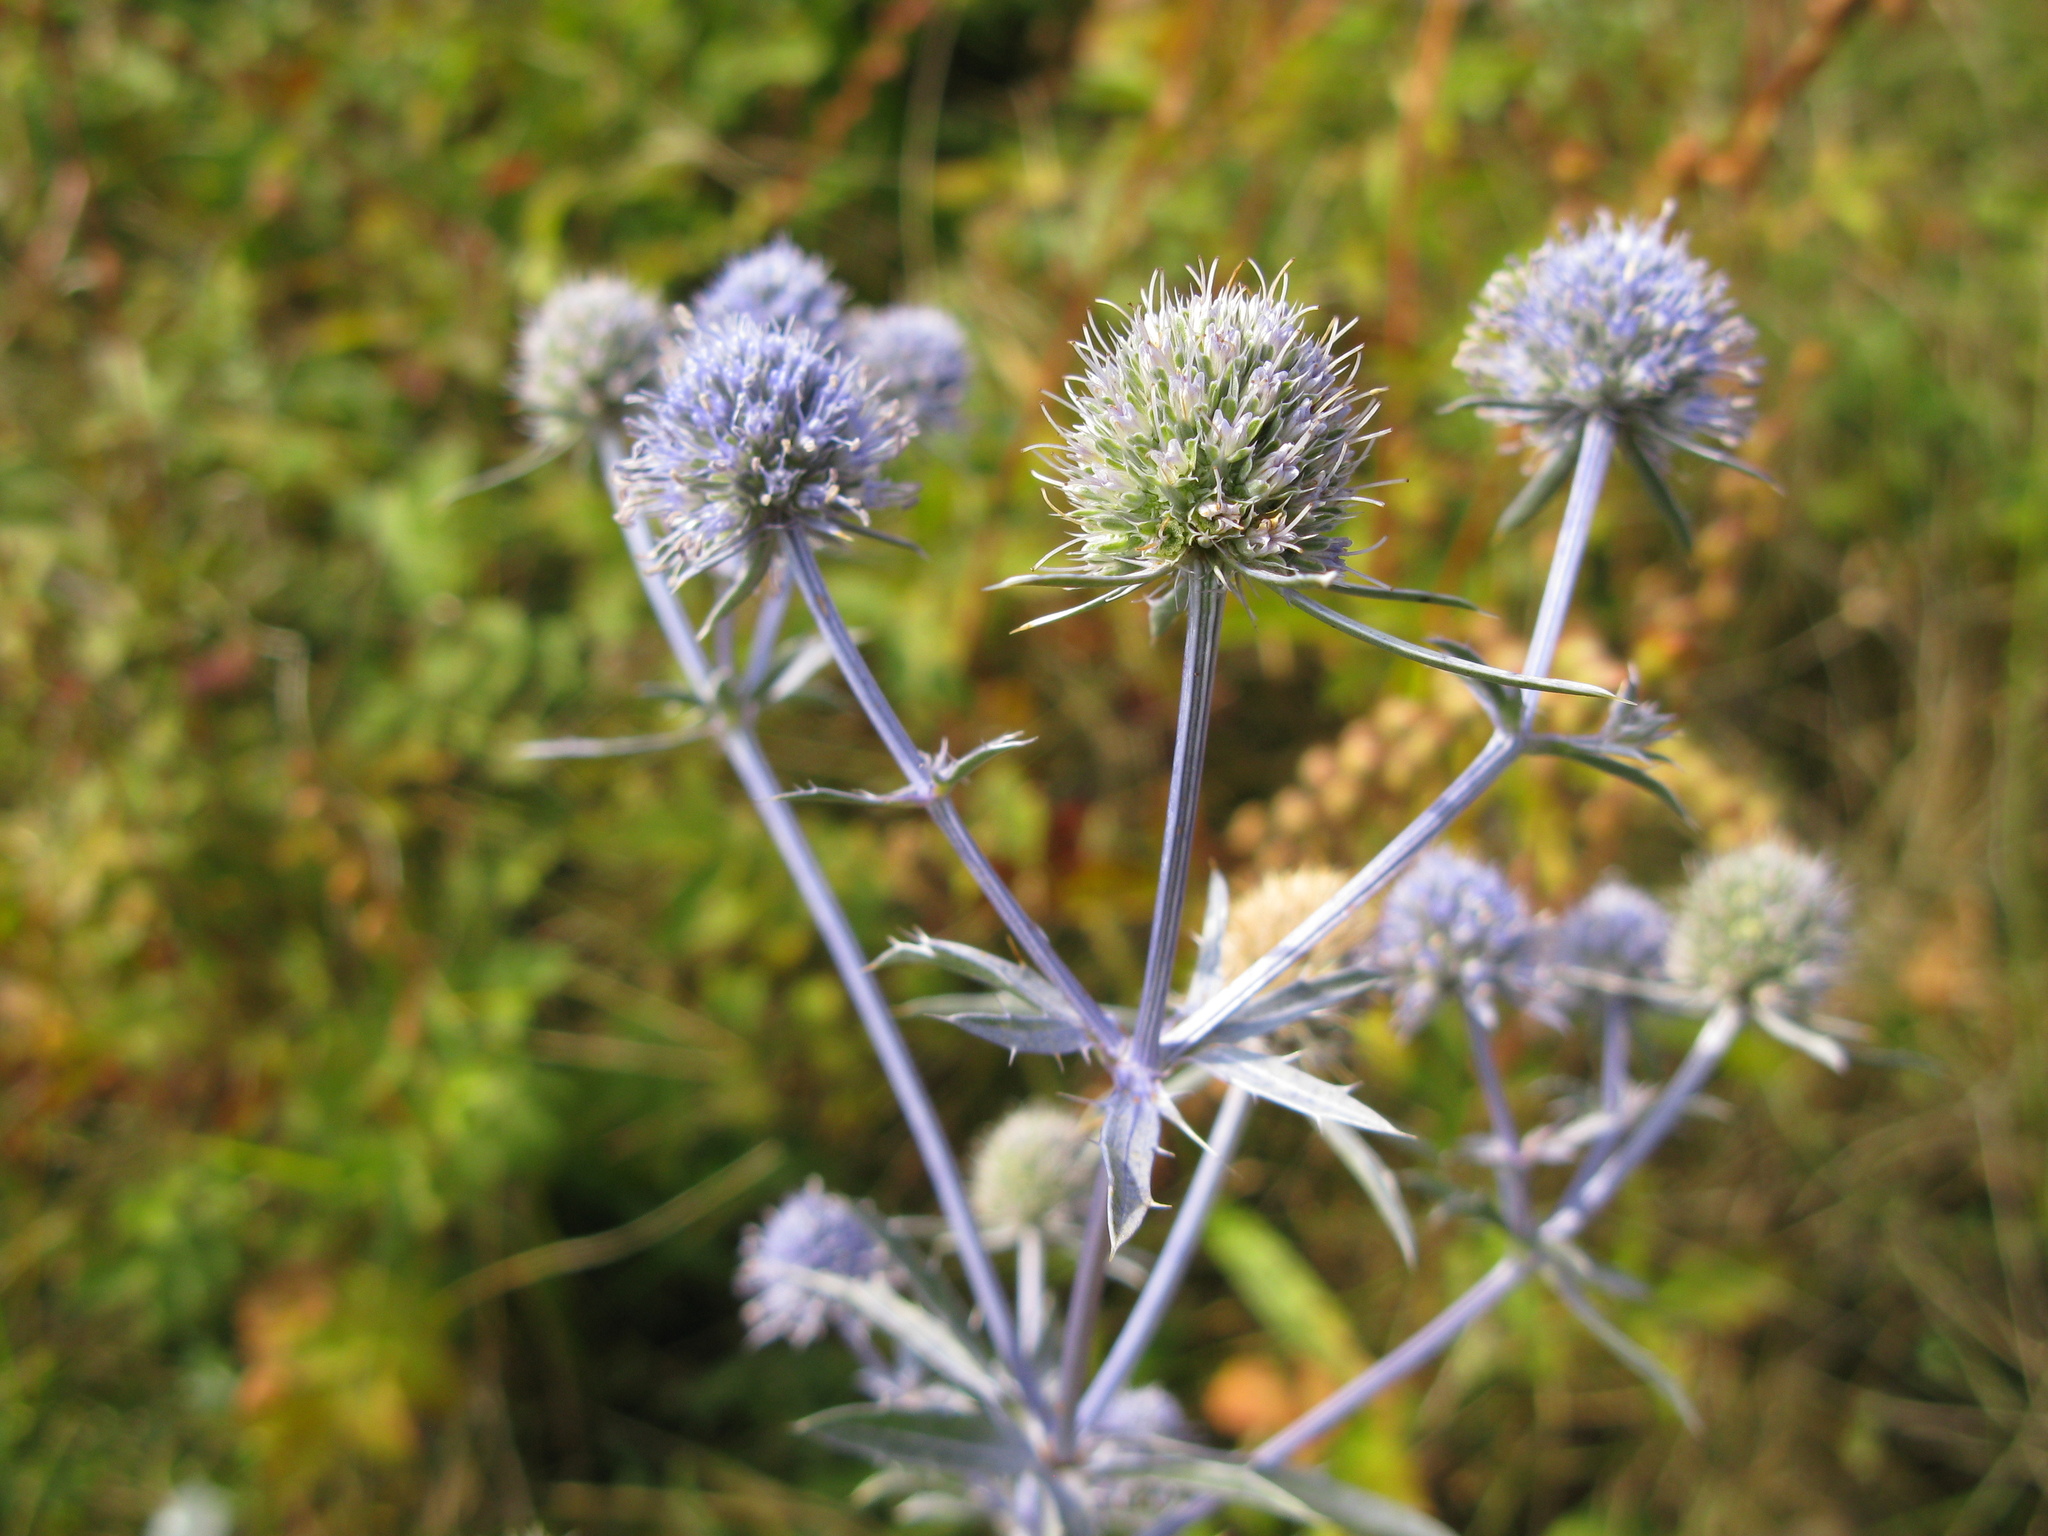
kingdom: Plantae
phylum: Tracheophyta
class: Magnoliopsida
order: Apiales
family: Apiaceae
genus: Eryngium
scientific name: Eryngium planum
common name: Blue eryngo
